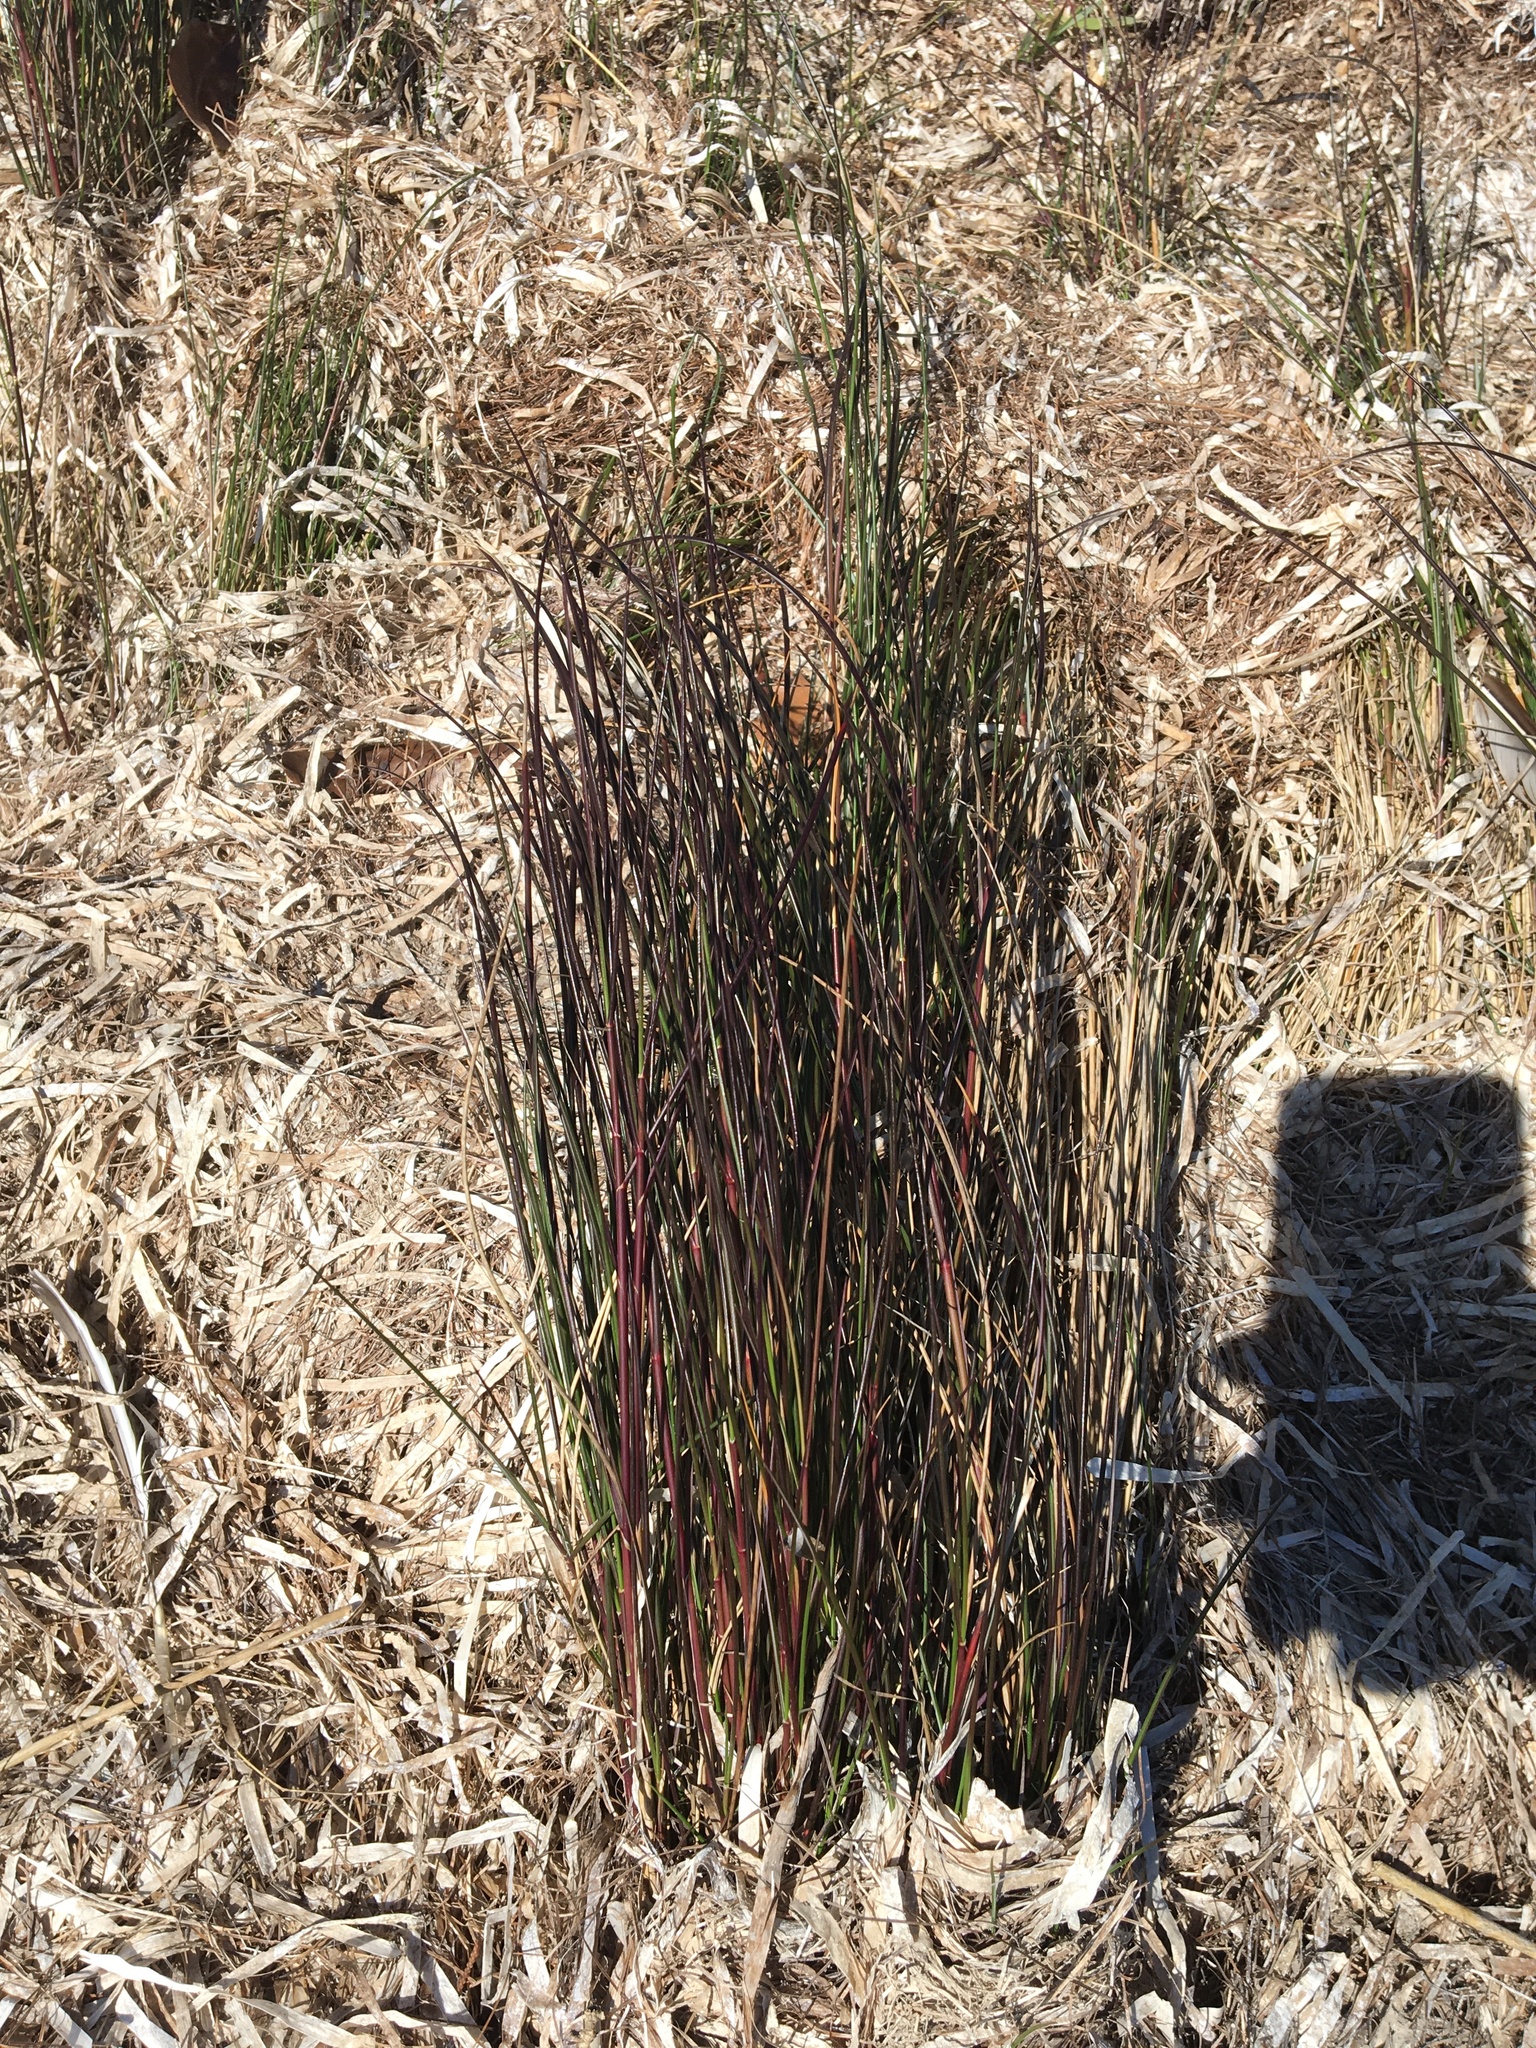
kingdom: Plantae
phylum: Tracheophyta
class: Liliopsida
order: Poales
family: Juncaceae
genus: Juncus
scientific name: Juncus roemerianus
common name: Roemer's rush
